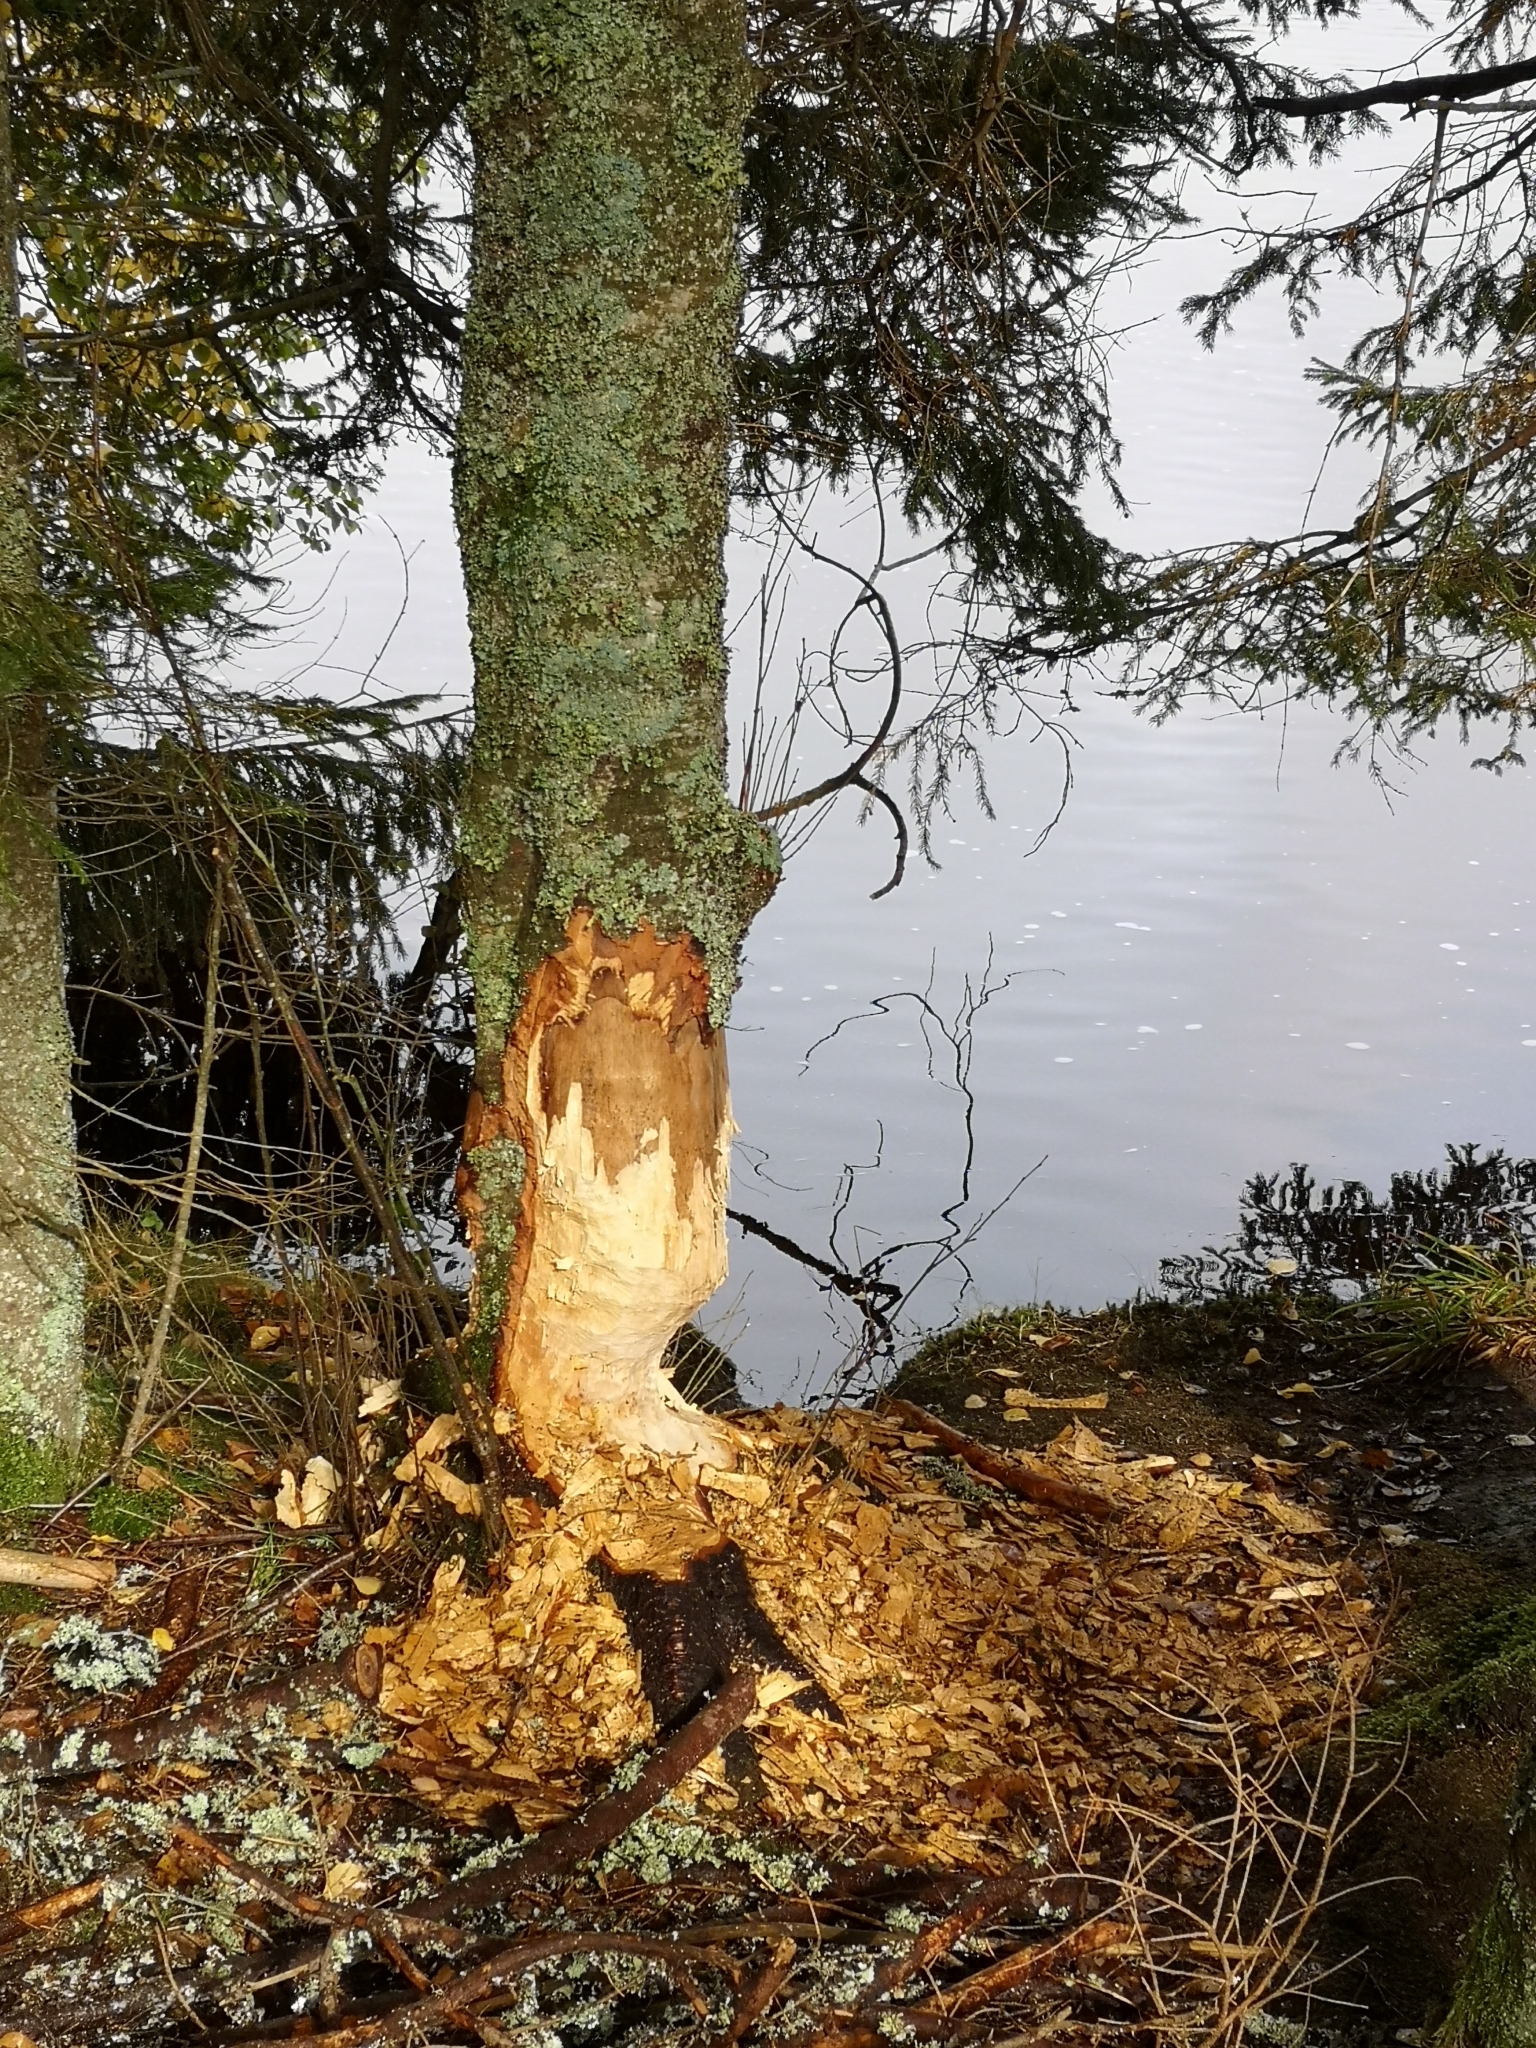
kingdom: Animalia
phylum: Chordata
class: Mammalia
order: Rodentia
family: Castoridae
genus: Castor
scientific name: Castor fiber
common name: Eurasian beaver
